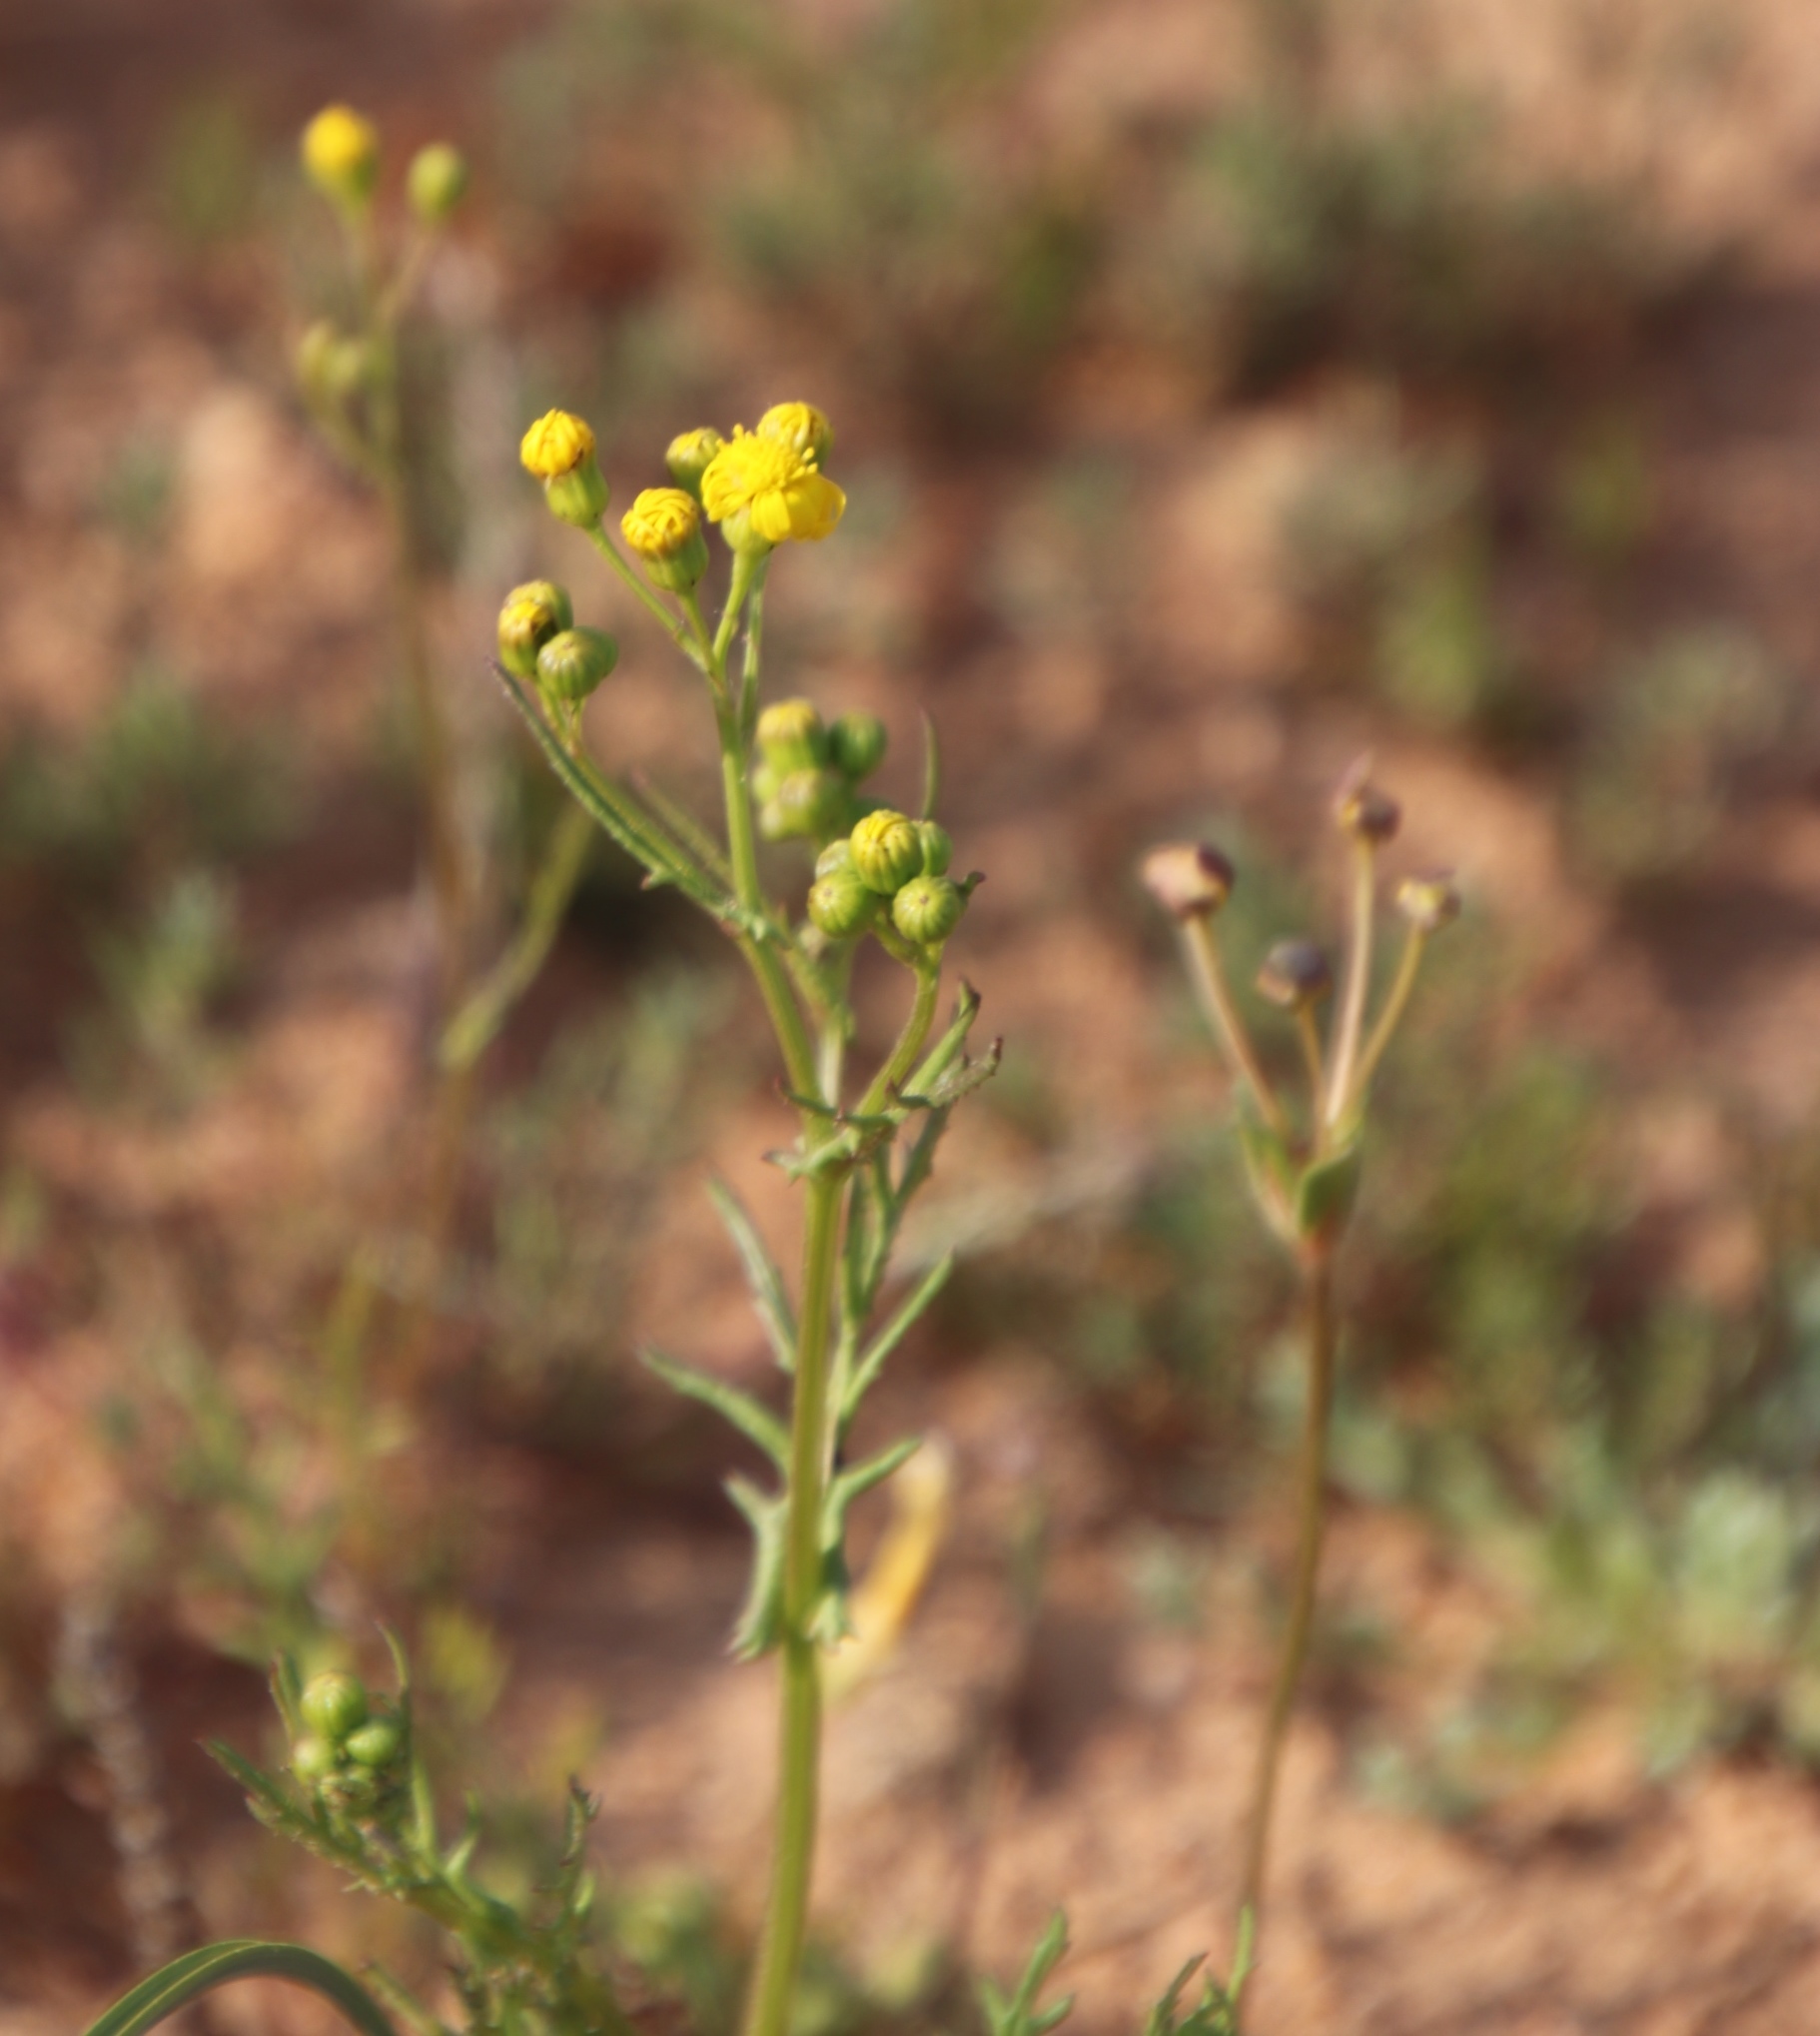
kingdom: Plantae
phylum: Tracheophyta
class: Magnoliopsida
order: Asterales
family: Asteraceae
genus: Senecio
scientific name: Senecio abruptus
